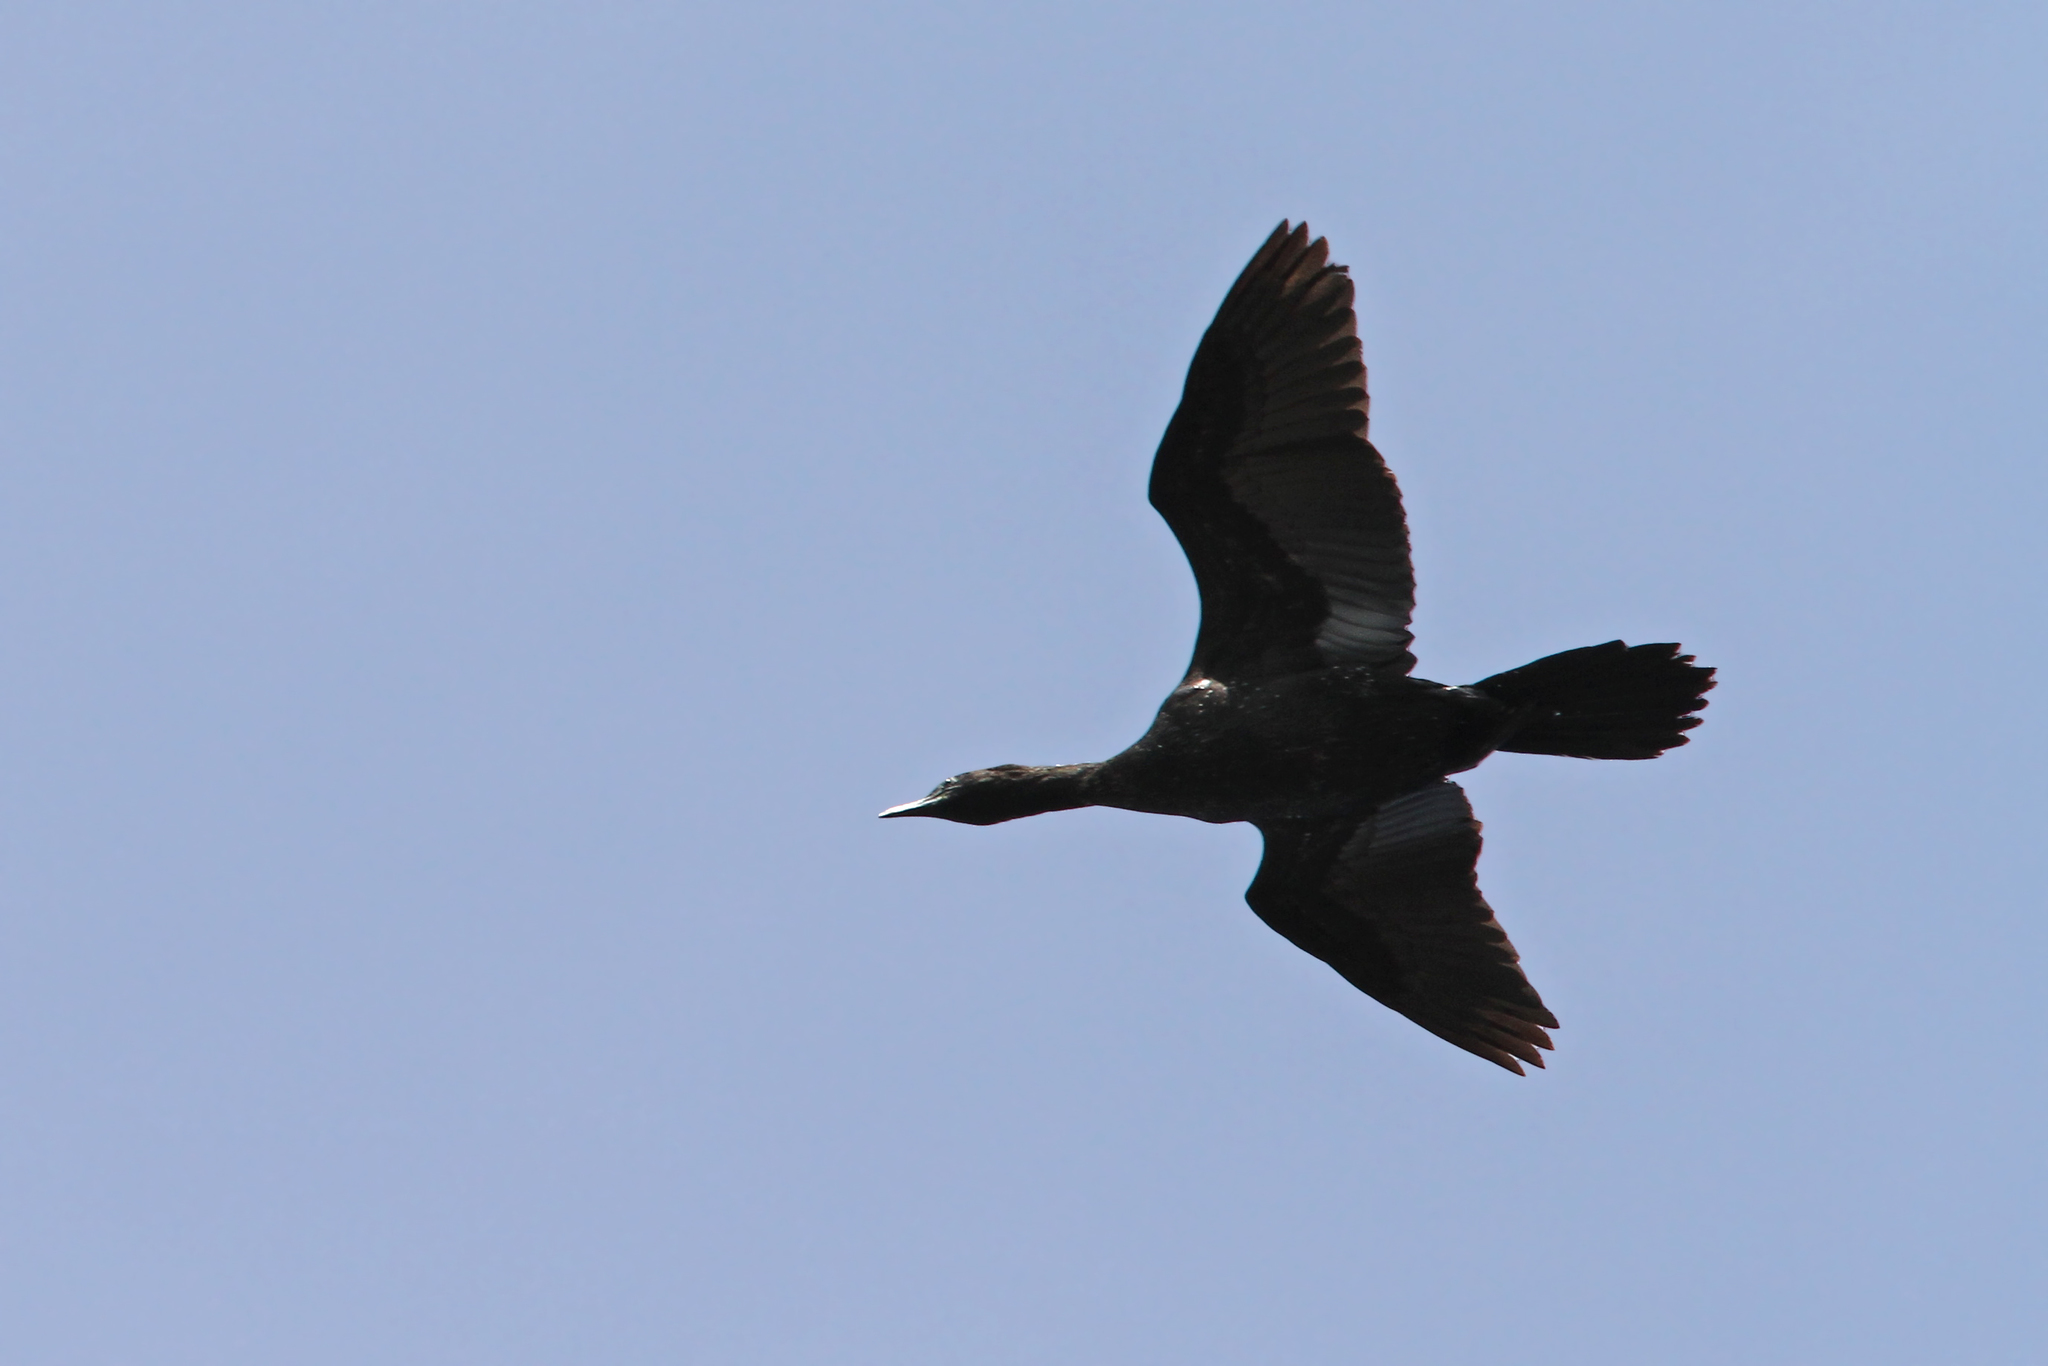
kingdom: Animalia
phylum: Chordata
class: Aves
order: Suliformes
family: Phalacrocoracidae
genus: Microcarbo
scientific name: Microcarbo pygmaeus
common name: Pygmy cormorant
